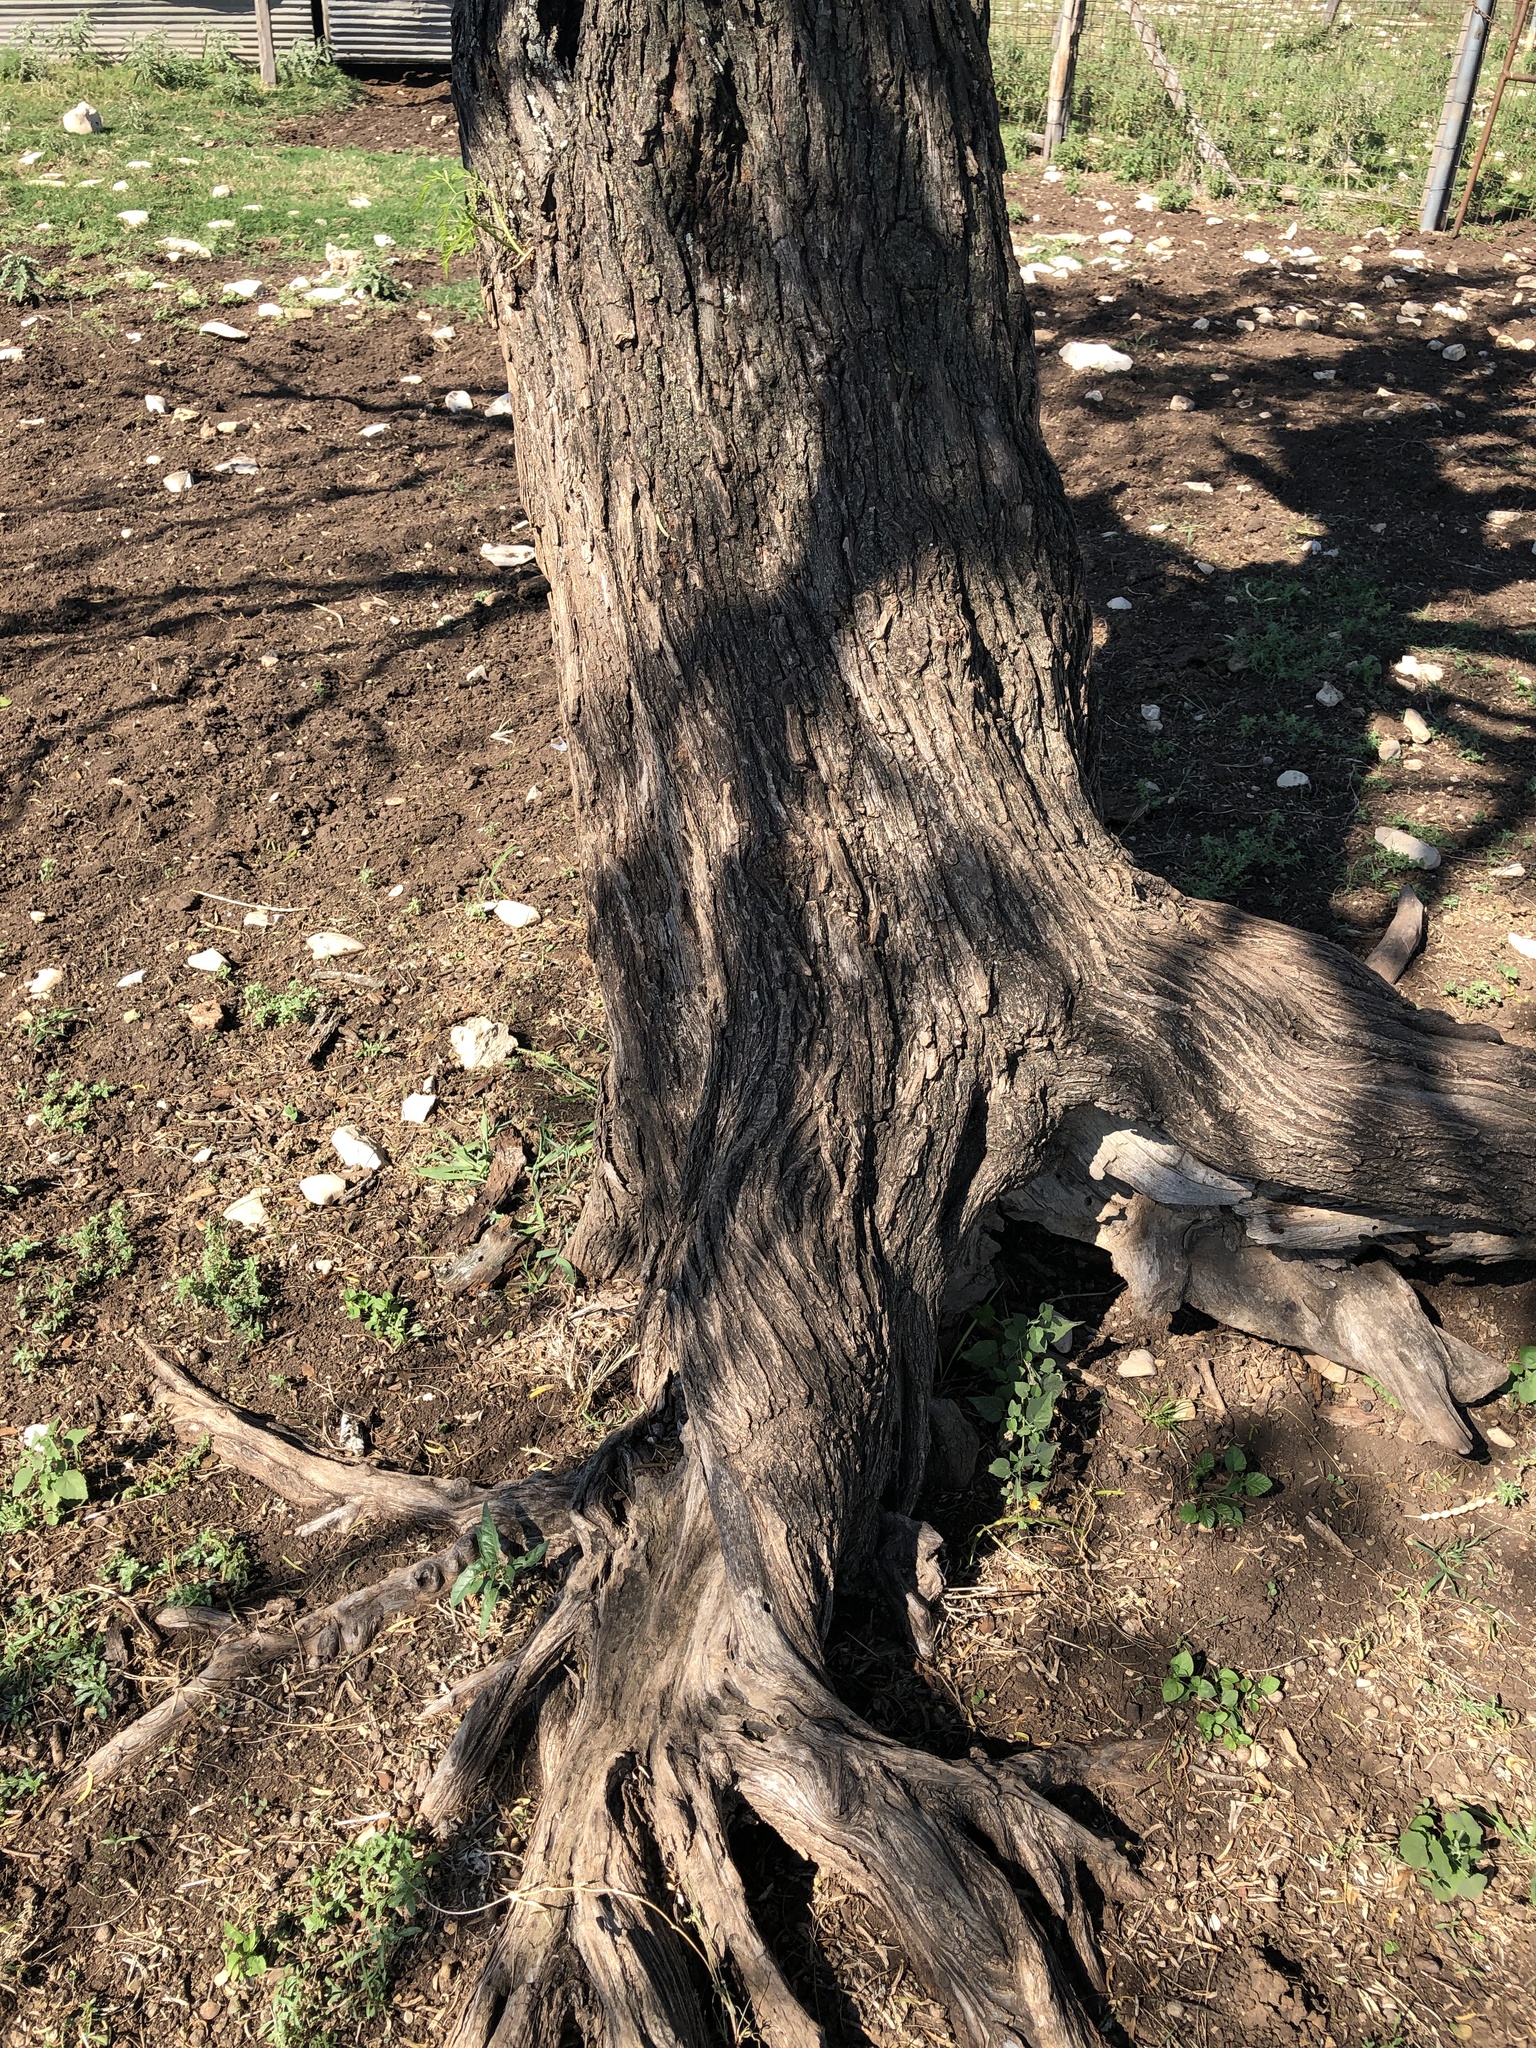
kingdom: Plantae
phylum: Tracheophyta
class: Magnoliopsida
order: Fabales
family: Fabaceae
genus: Prosopis
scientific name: Prosopis glandulosa
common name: Honey mesquite
